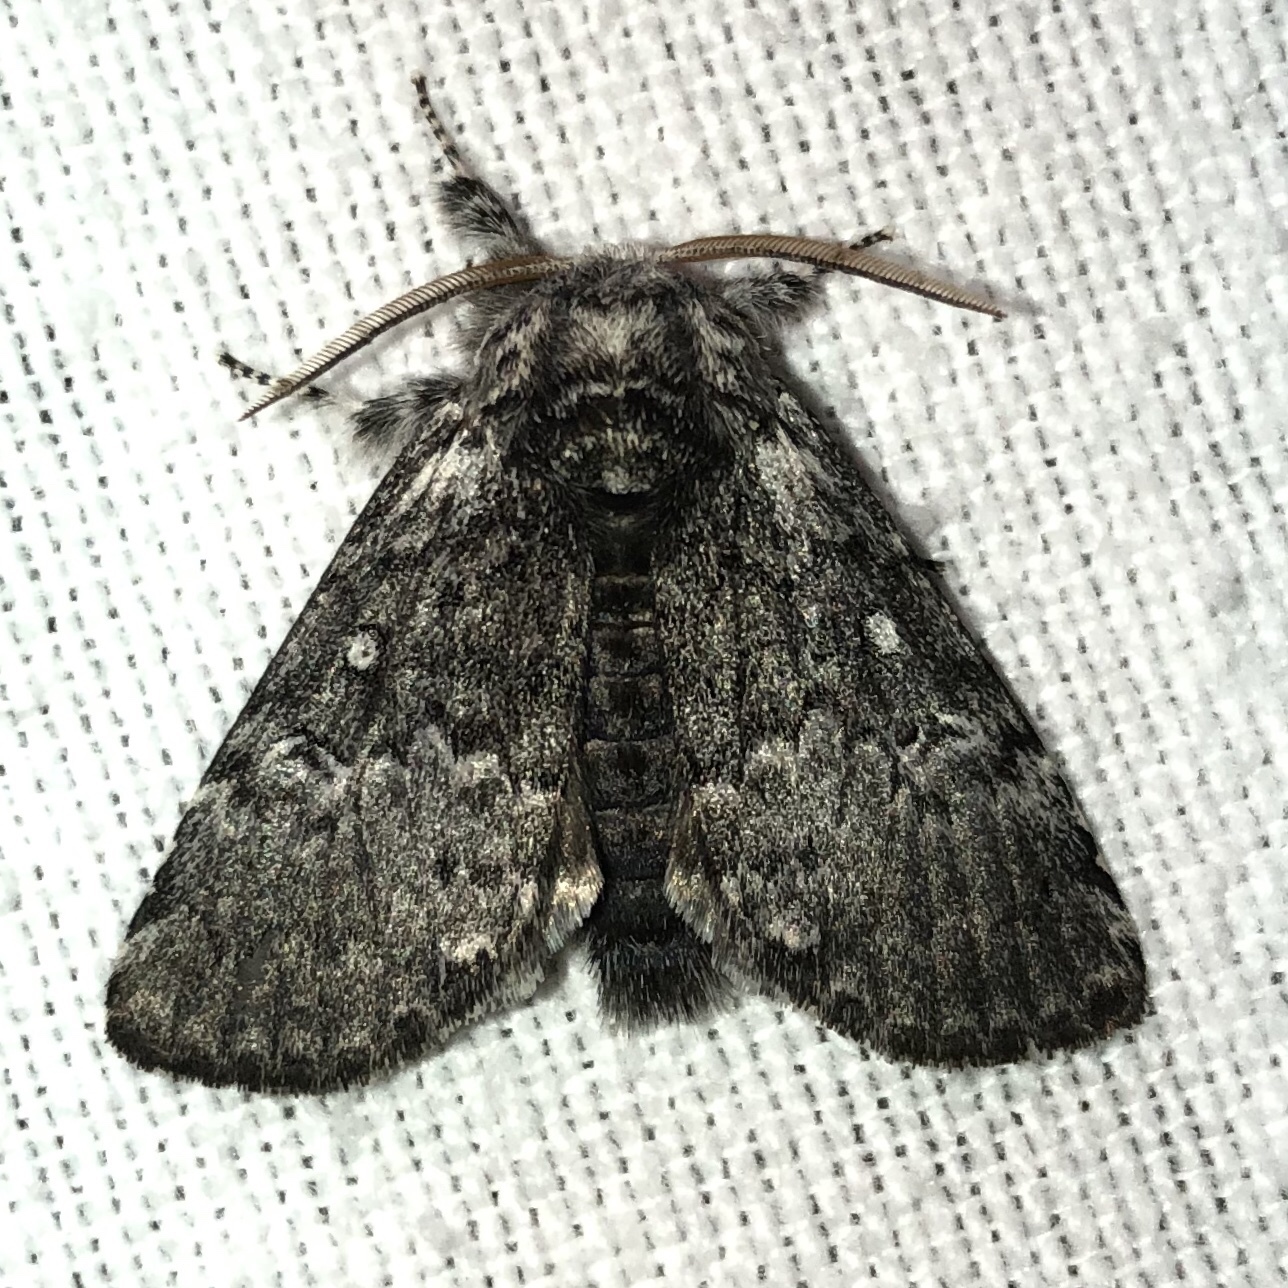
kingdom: Animalia
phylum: Arthropoda
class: Insecta
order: Lepidoptera
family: Noctuidae
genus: Colocasia
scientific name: Colocasia propinquilinea
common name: Close-banded demas
